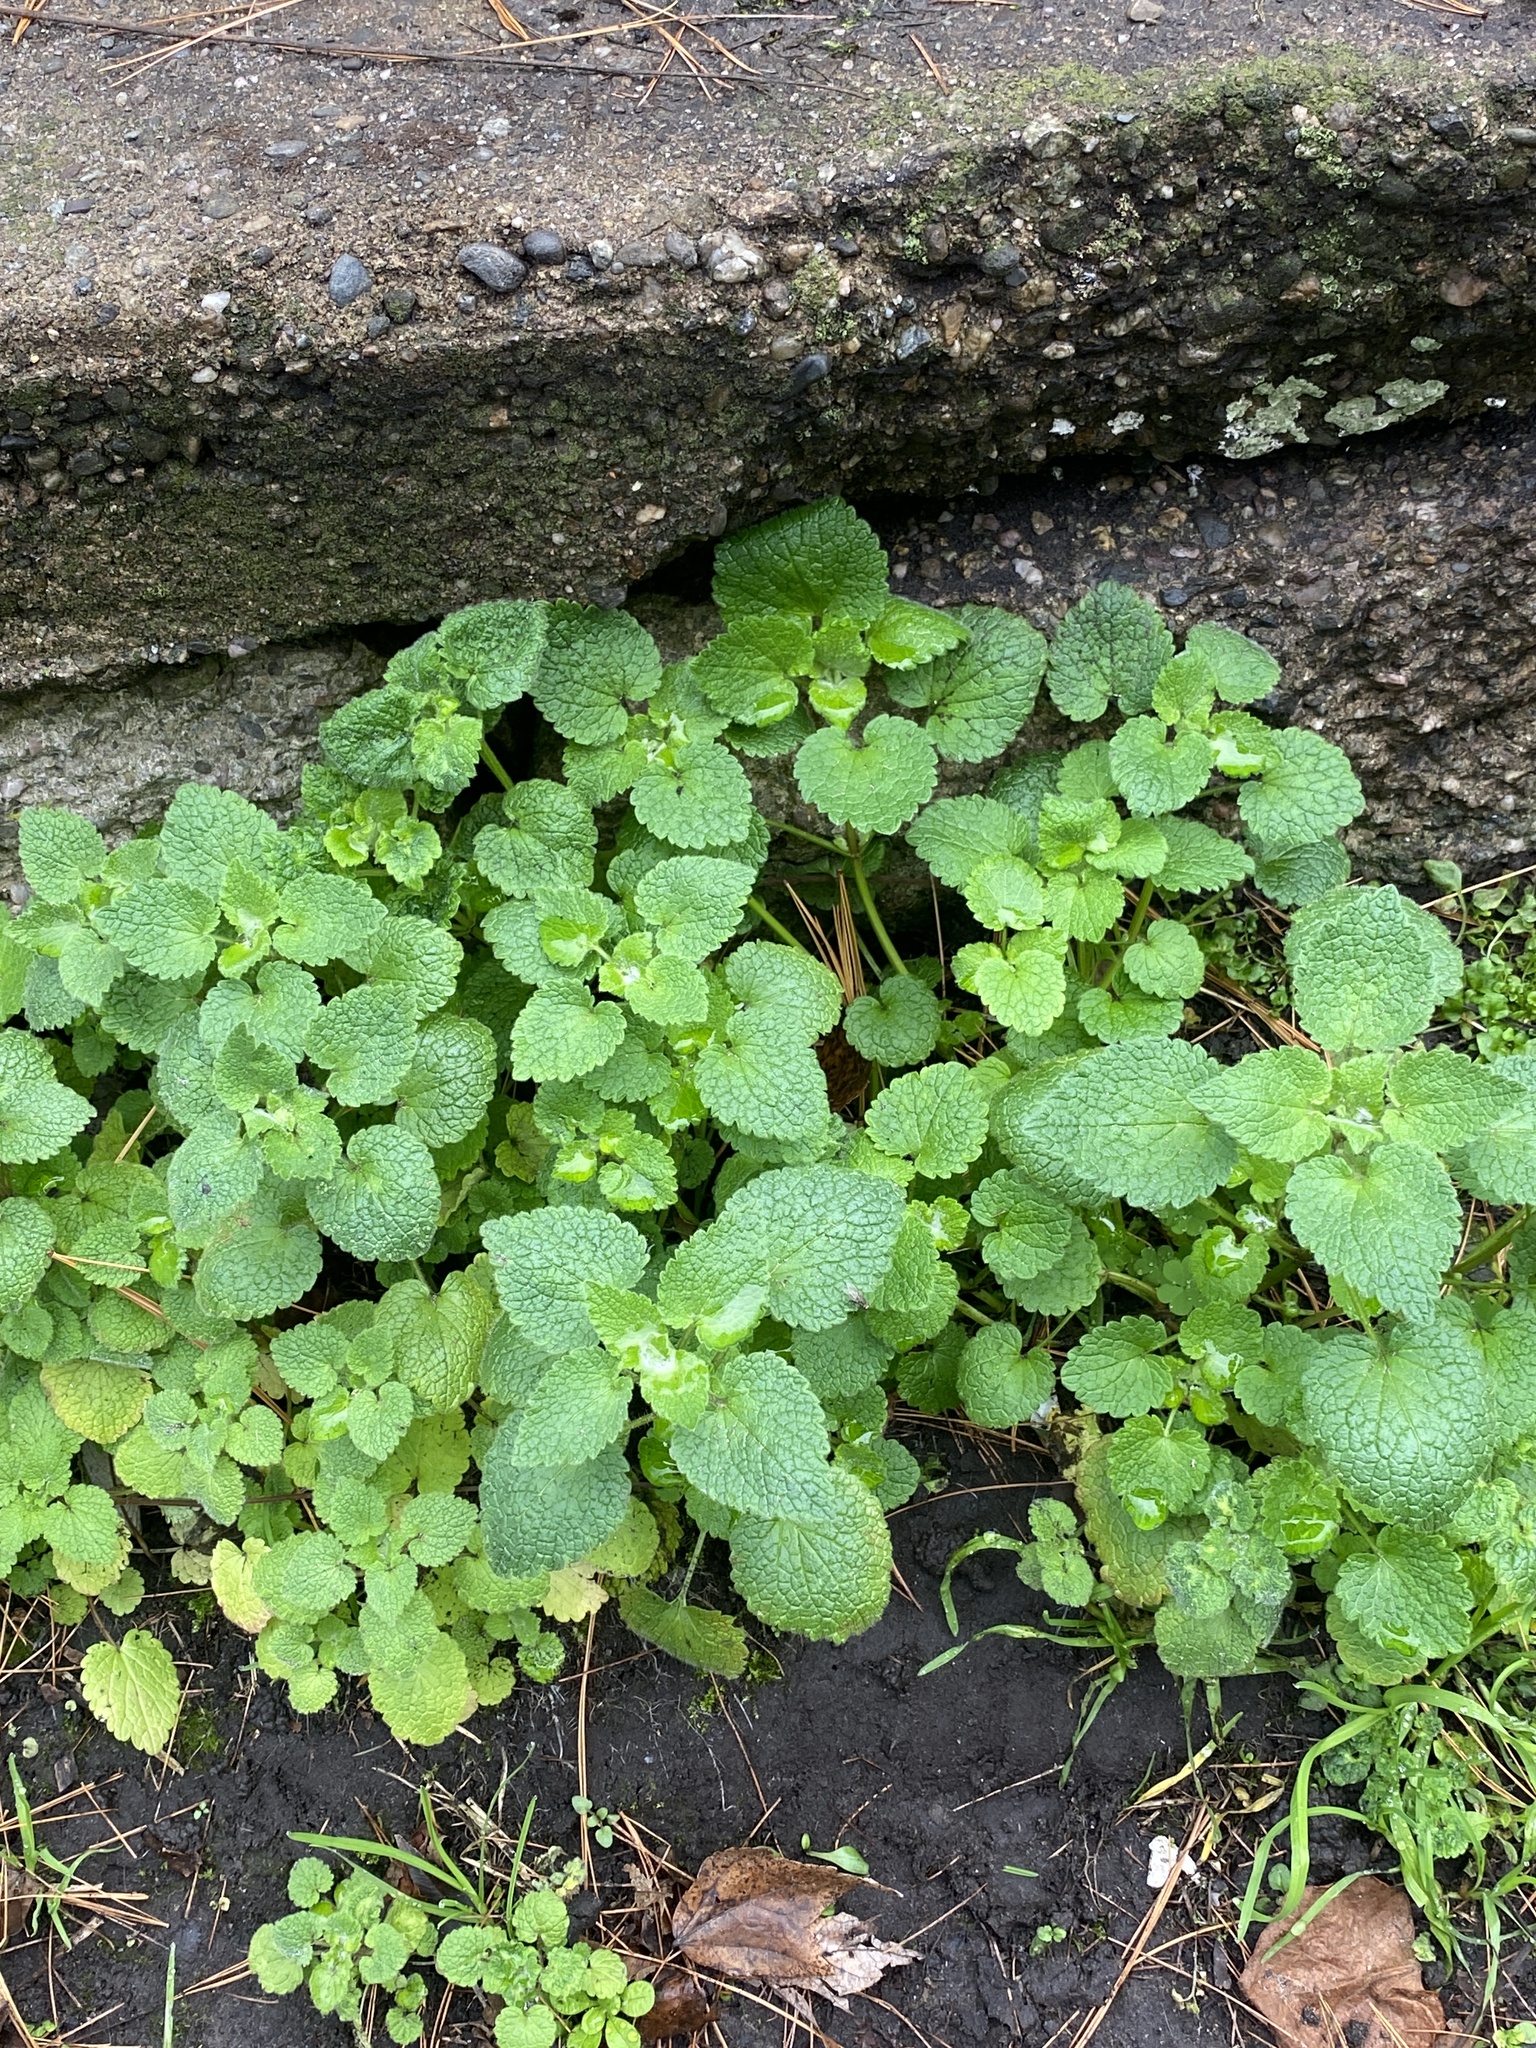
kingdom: Plantae
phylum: Tracheophyta
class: Magnoliopsida
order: Lamiales
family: Lamiaceae
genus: Melissa
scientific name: Melissa officinalis
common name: Balm
